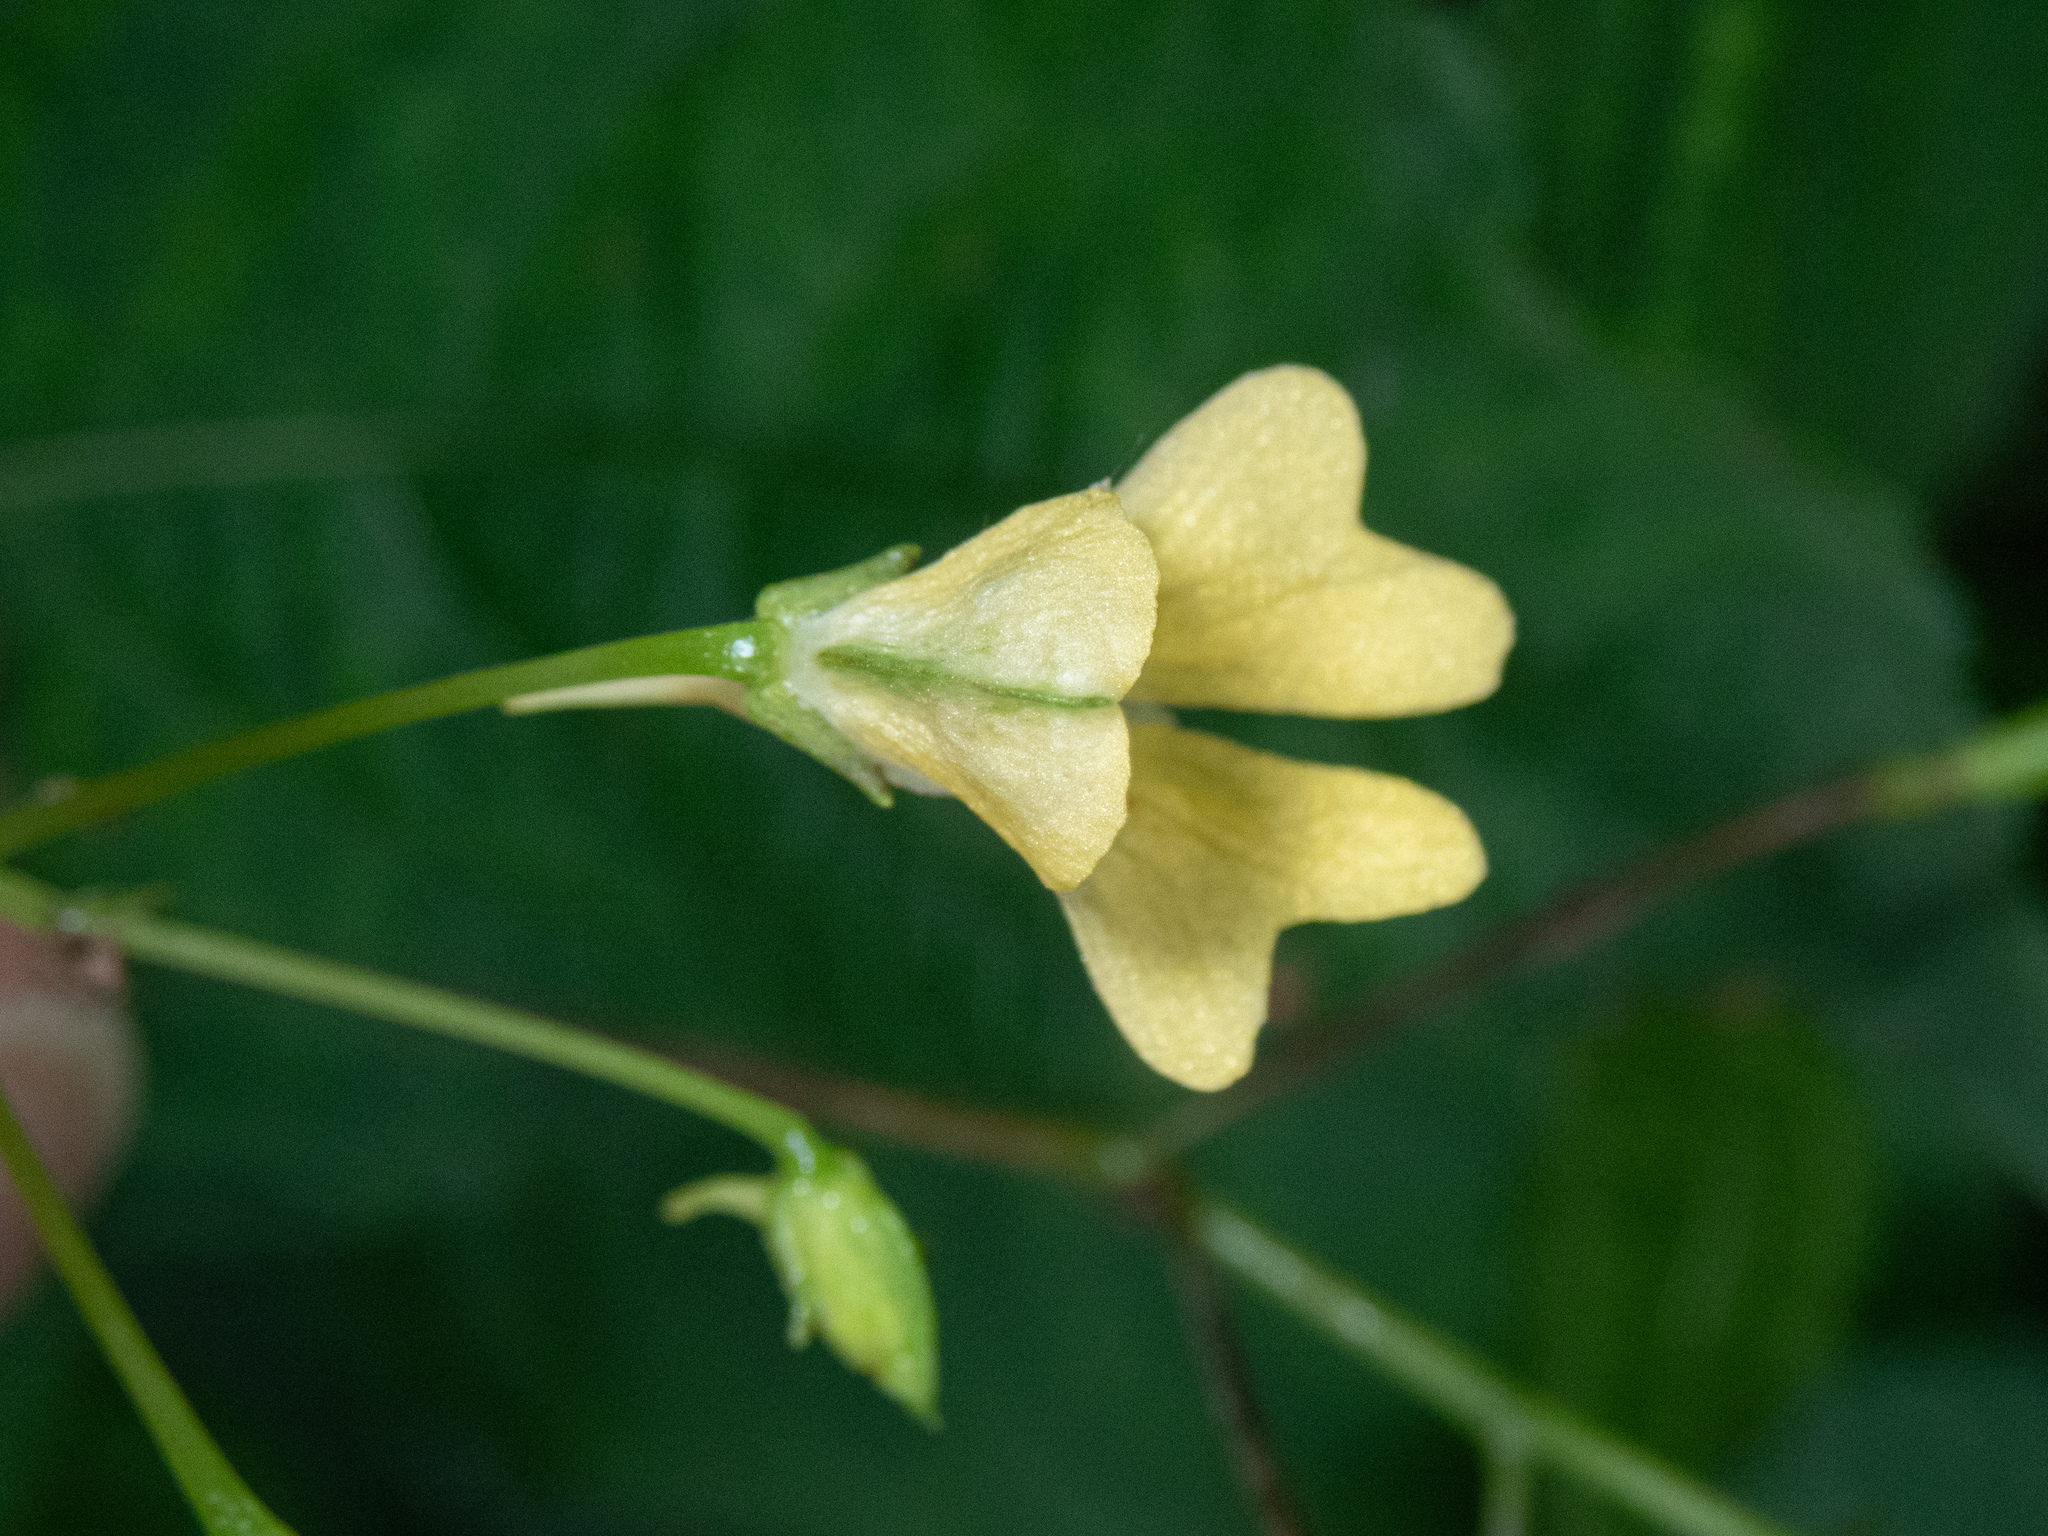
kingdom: Plantae
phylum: Tracheophyta
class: Magnoliopsida
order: Ericales
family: Balsaminaceae
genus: Impatiens
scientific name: Impatiens parviflora
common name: Small balsam
